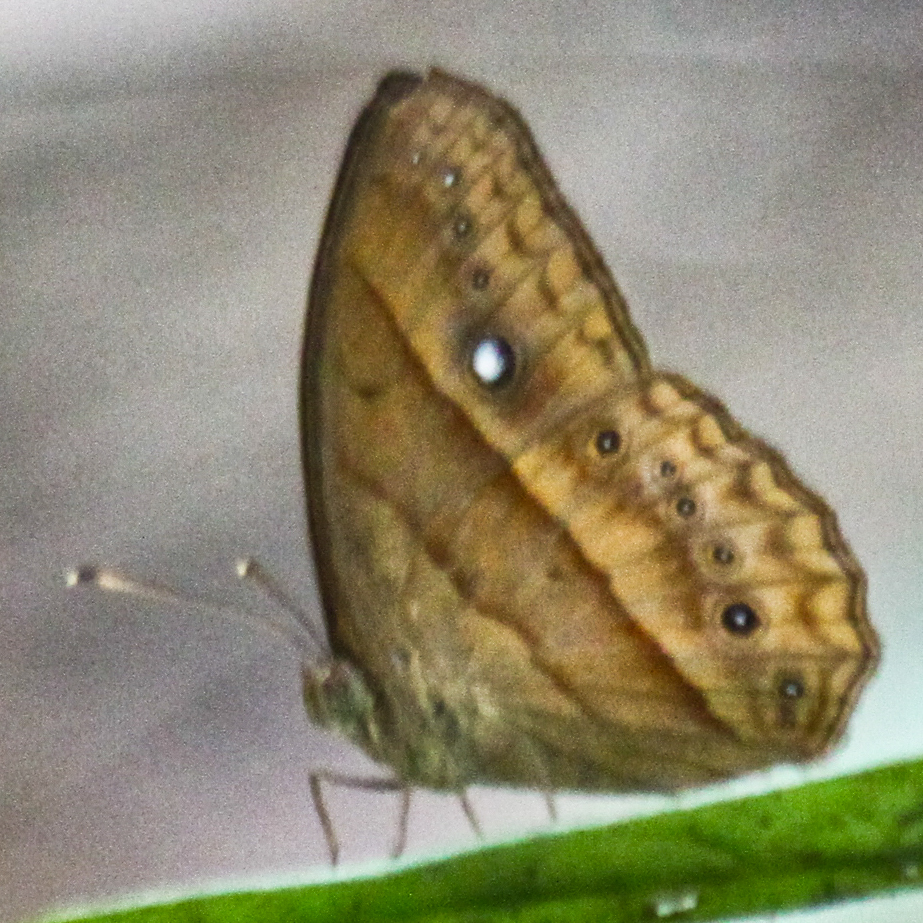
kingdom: Animalia
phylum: Arthropoda
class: Insecta
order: Lepidoptera
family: Nymphalidae
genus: Mycalesis
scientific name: Mycalesis mnasicles
